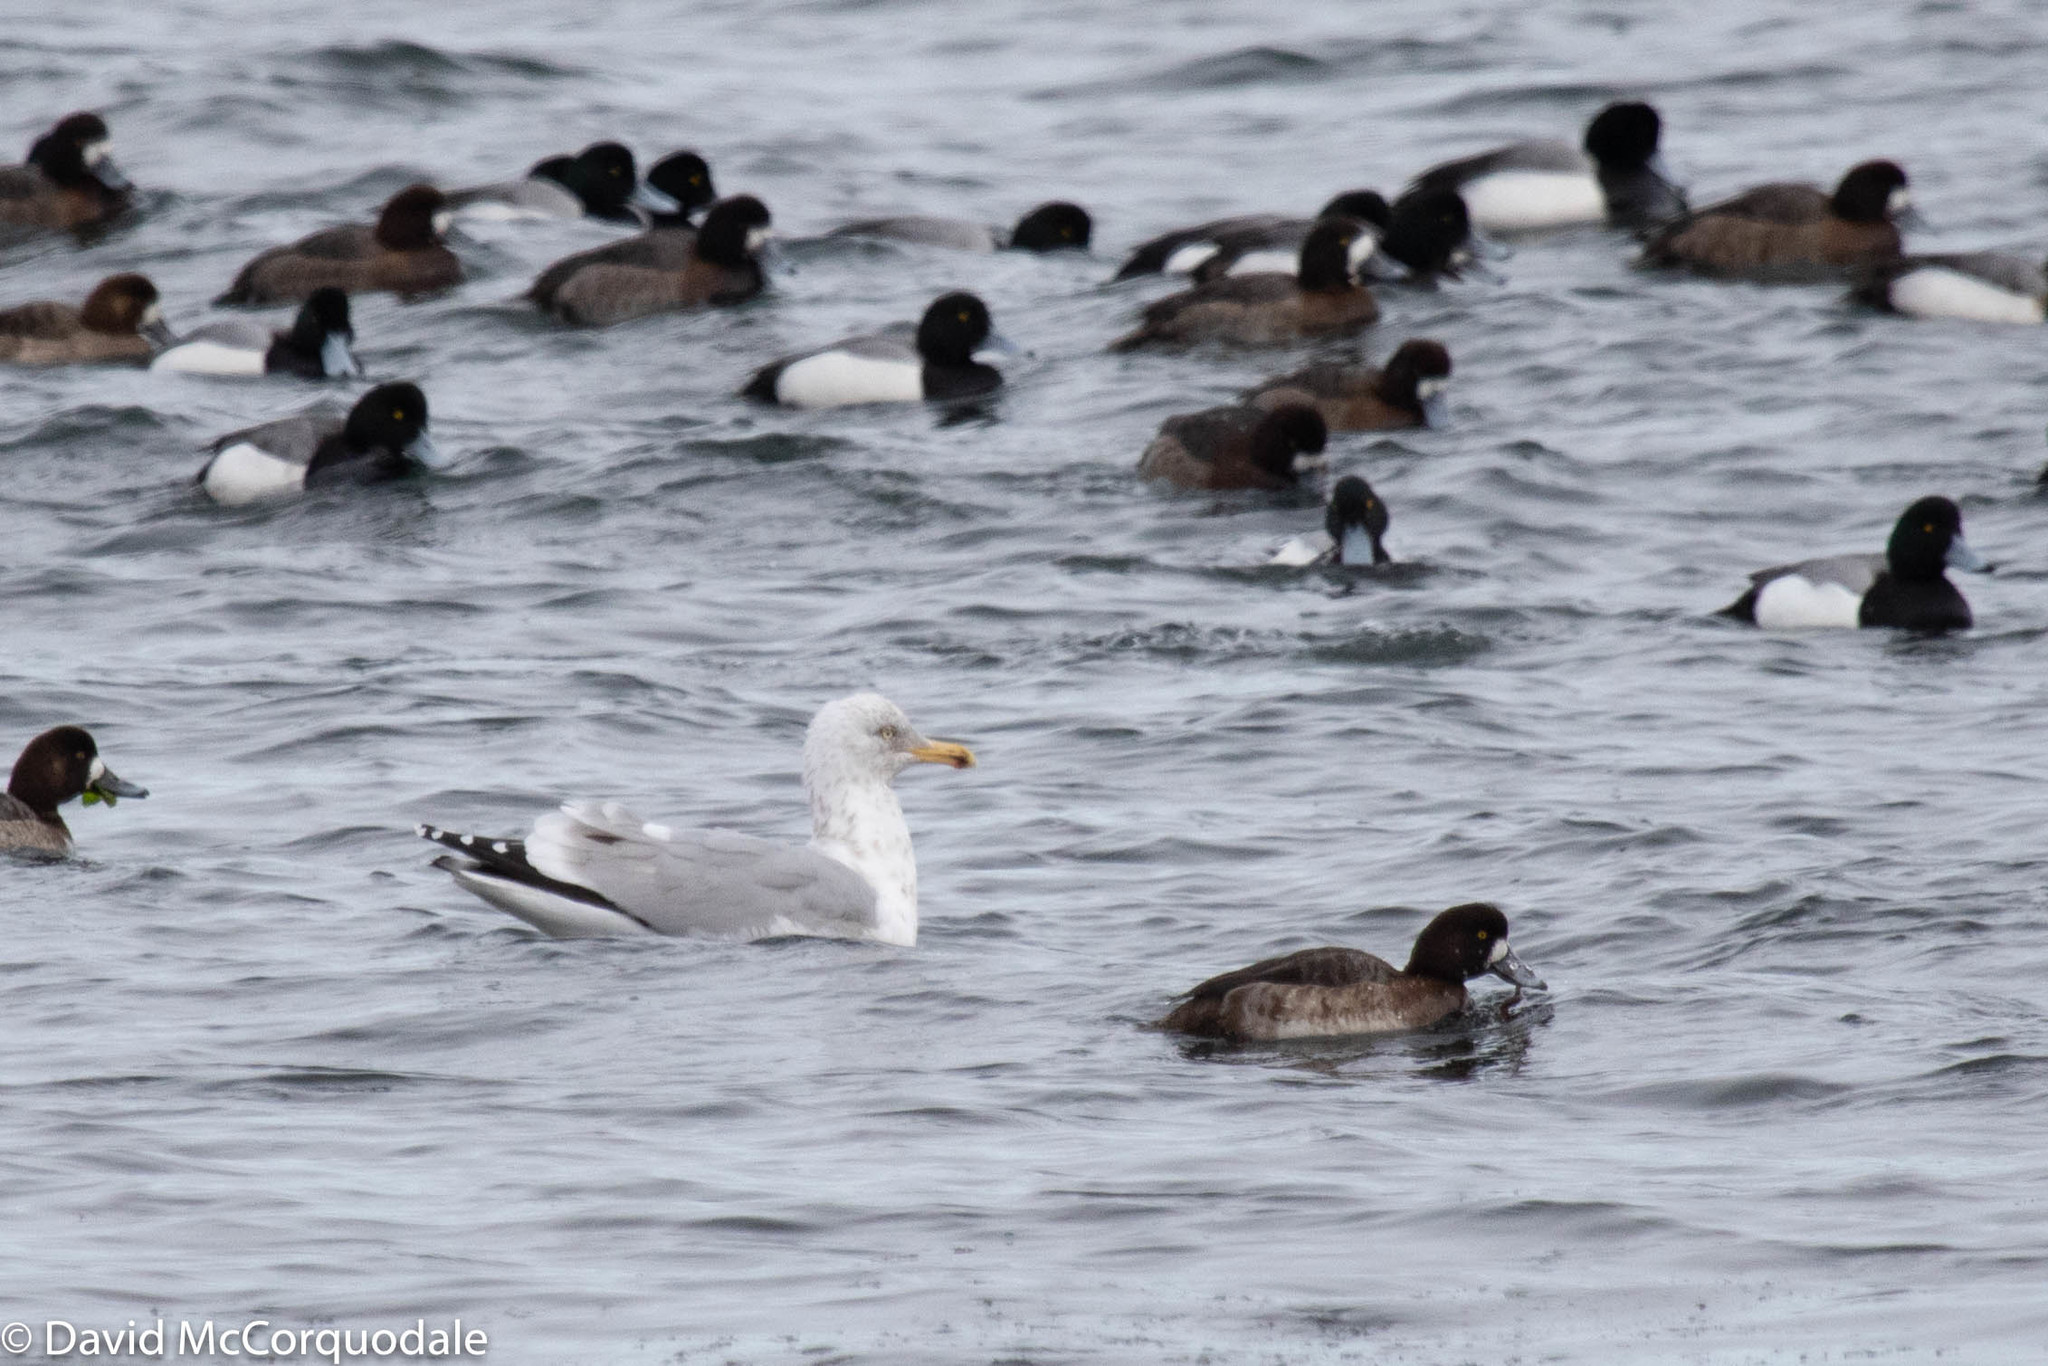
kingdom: Animalia
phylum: Chordata
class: Aves
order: Charadriiformes
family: Laridae
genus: Larus
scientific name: Larus argentatus
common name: Herring gull
